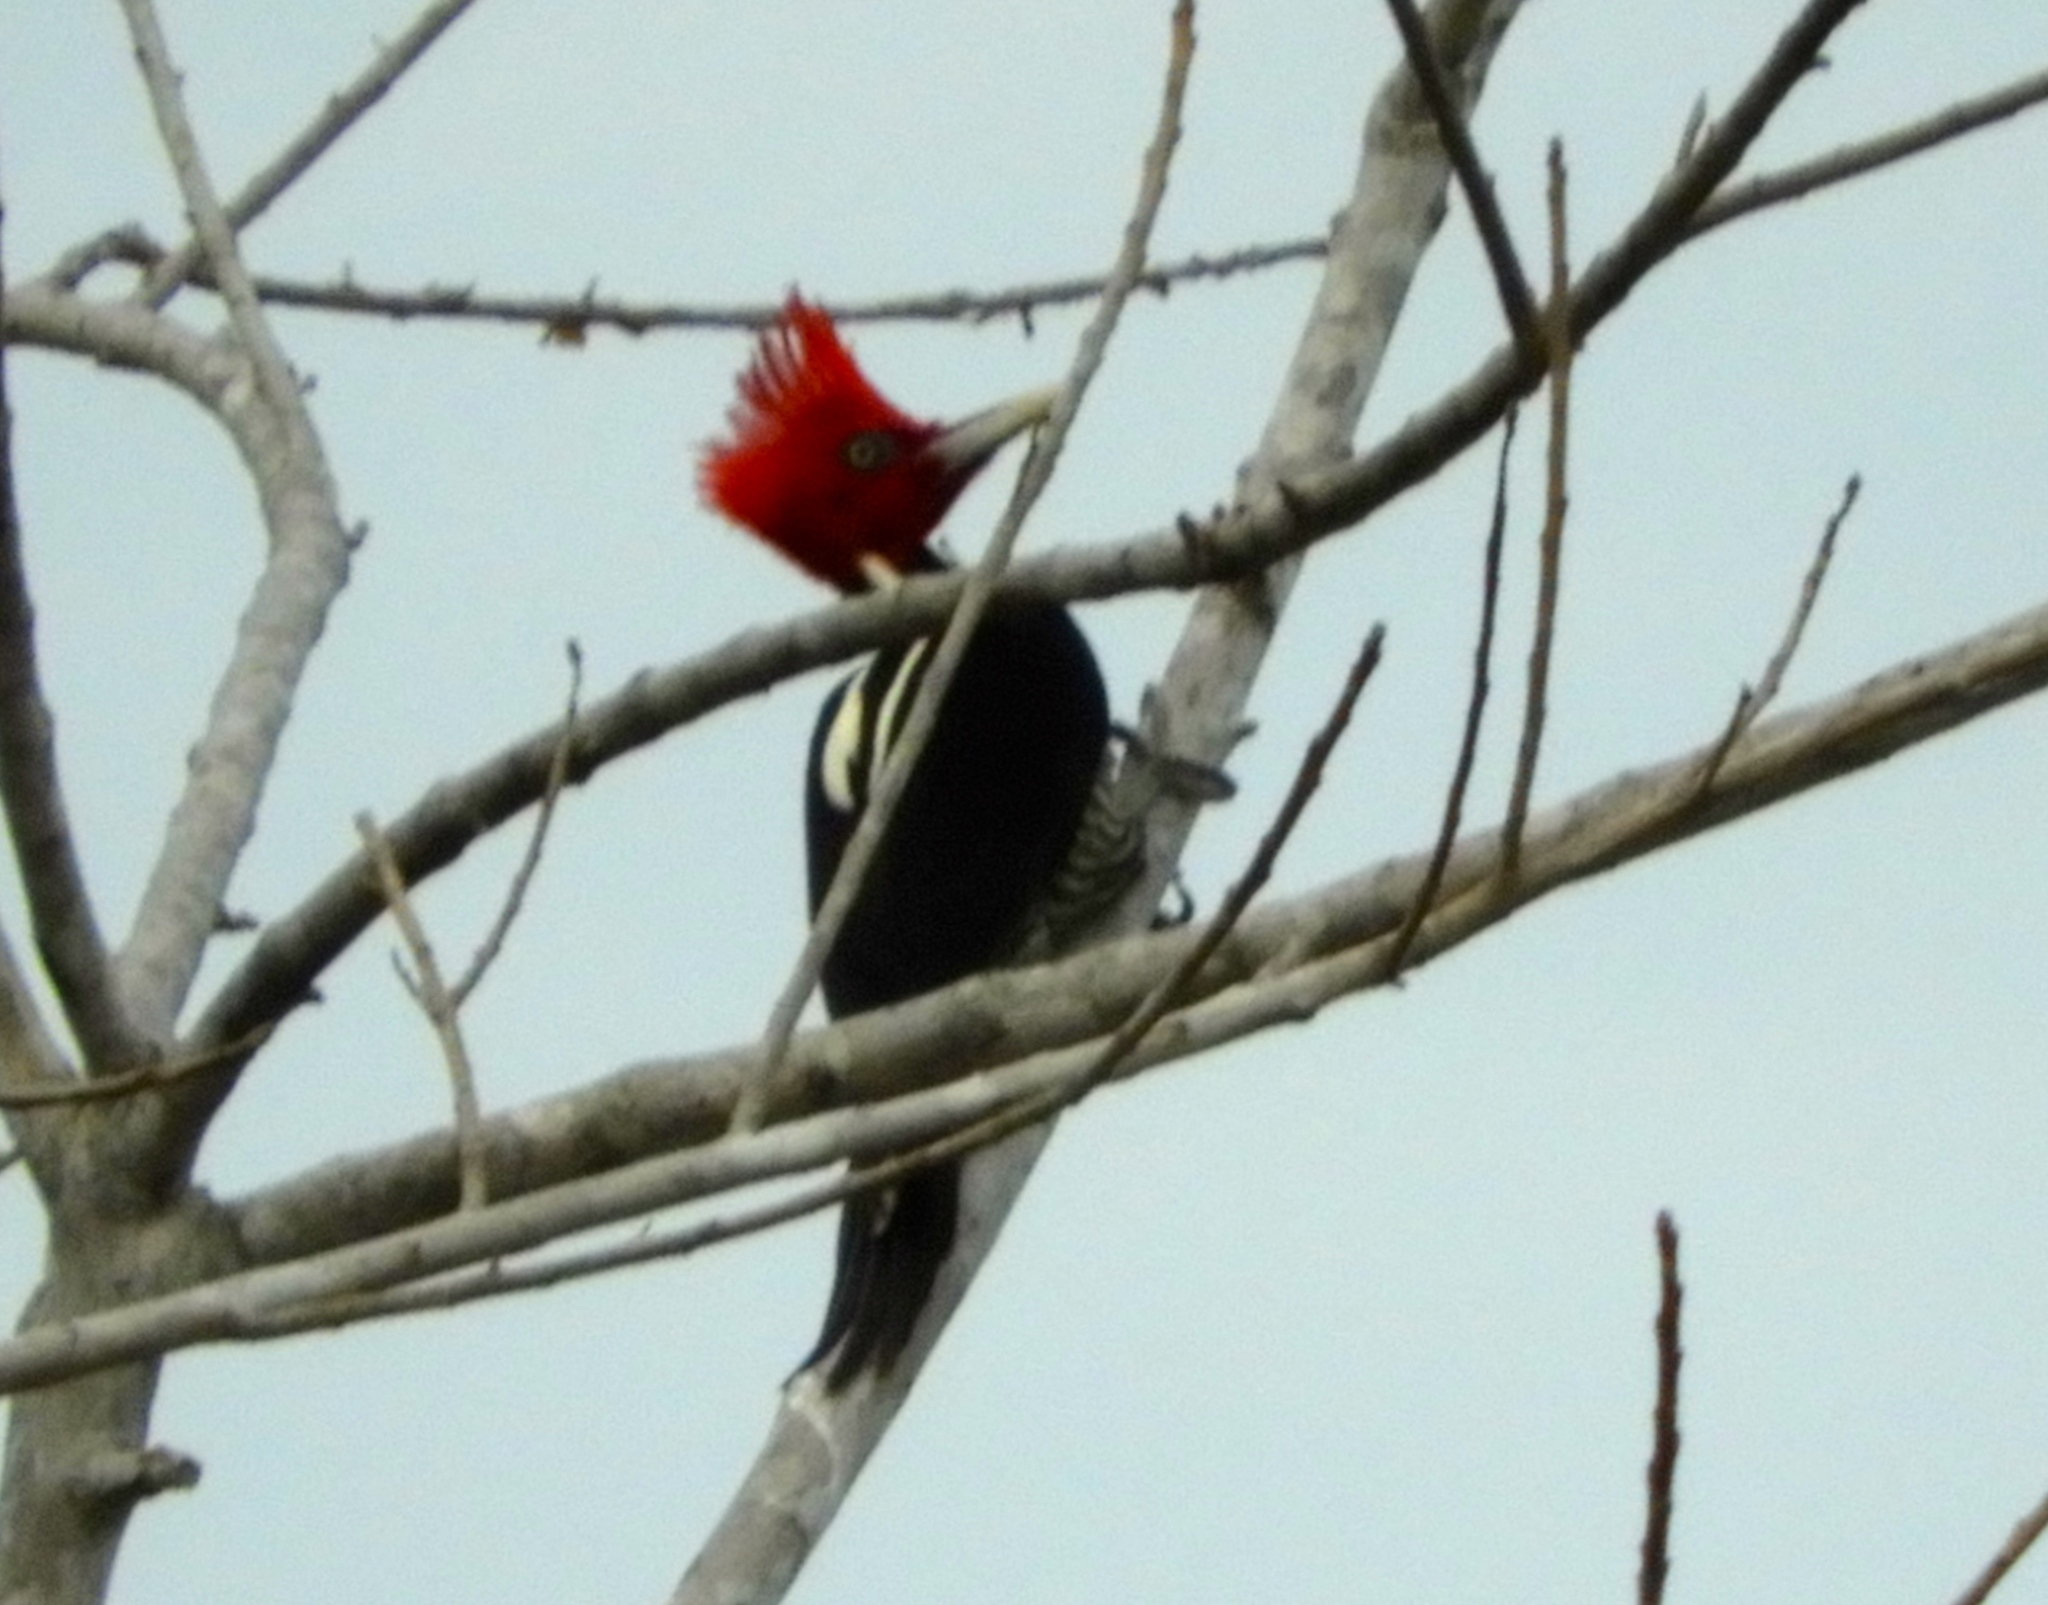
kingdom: Animalia
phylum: Chordata
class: Aves
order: Piciformes
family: Picidae
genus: Campephilus
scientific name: Campephilus guatemalensis
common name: Pale-billed woodpecker
